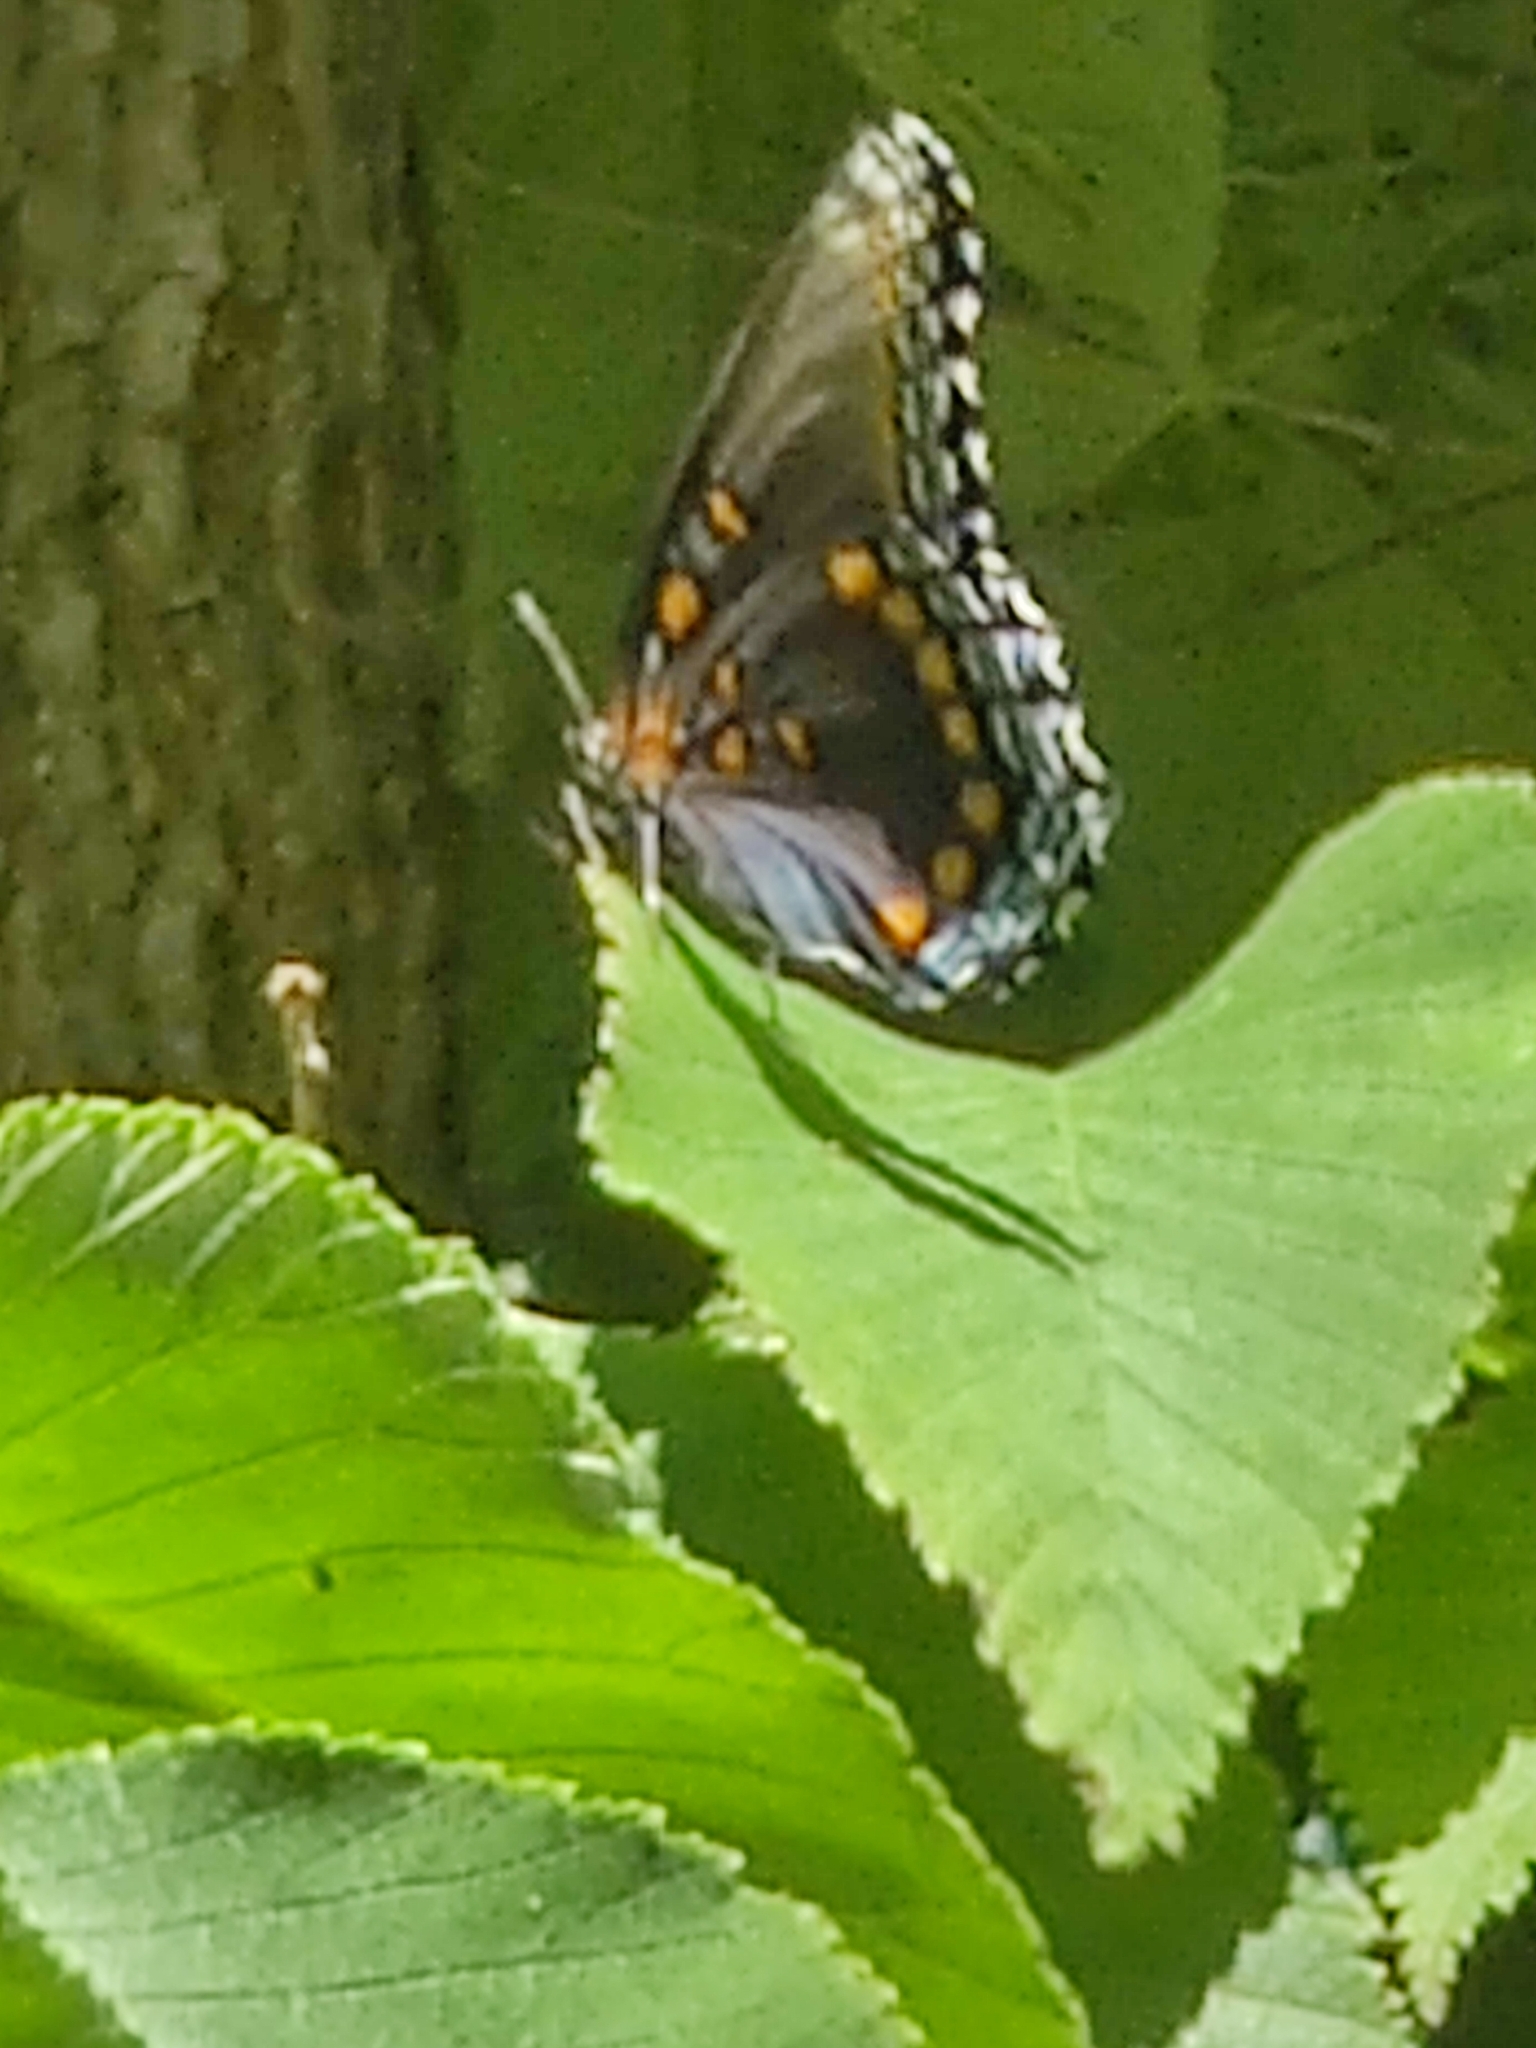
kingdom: Animalia
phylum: Arthropoda
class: Insecta
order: Lepidoptera
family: Nymphalidae
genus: Limenitis
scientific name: Limenitis astyanax
